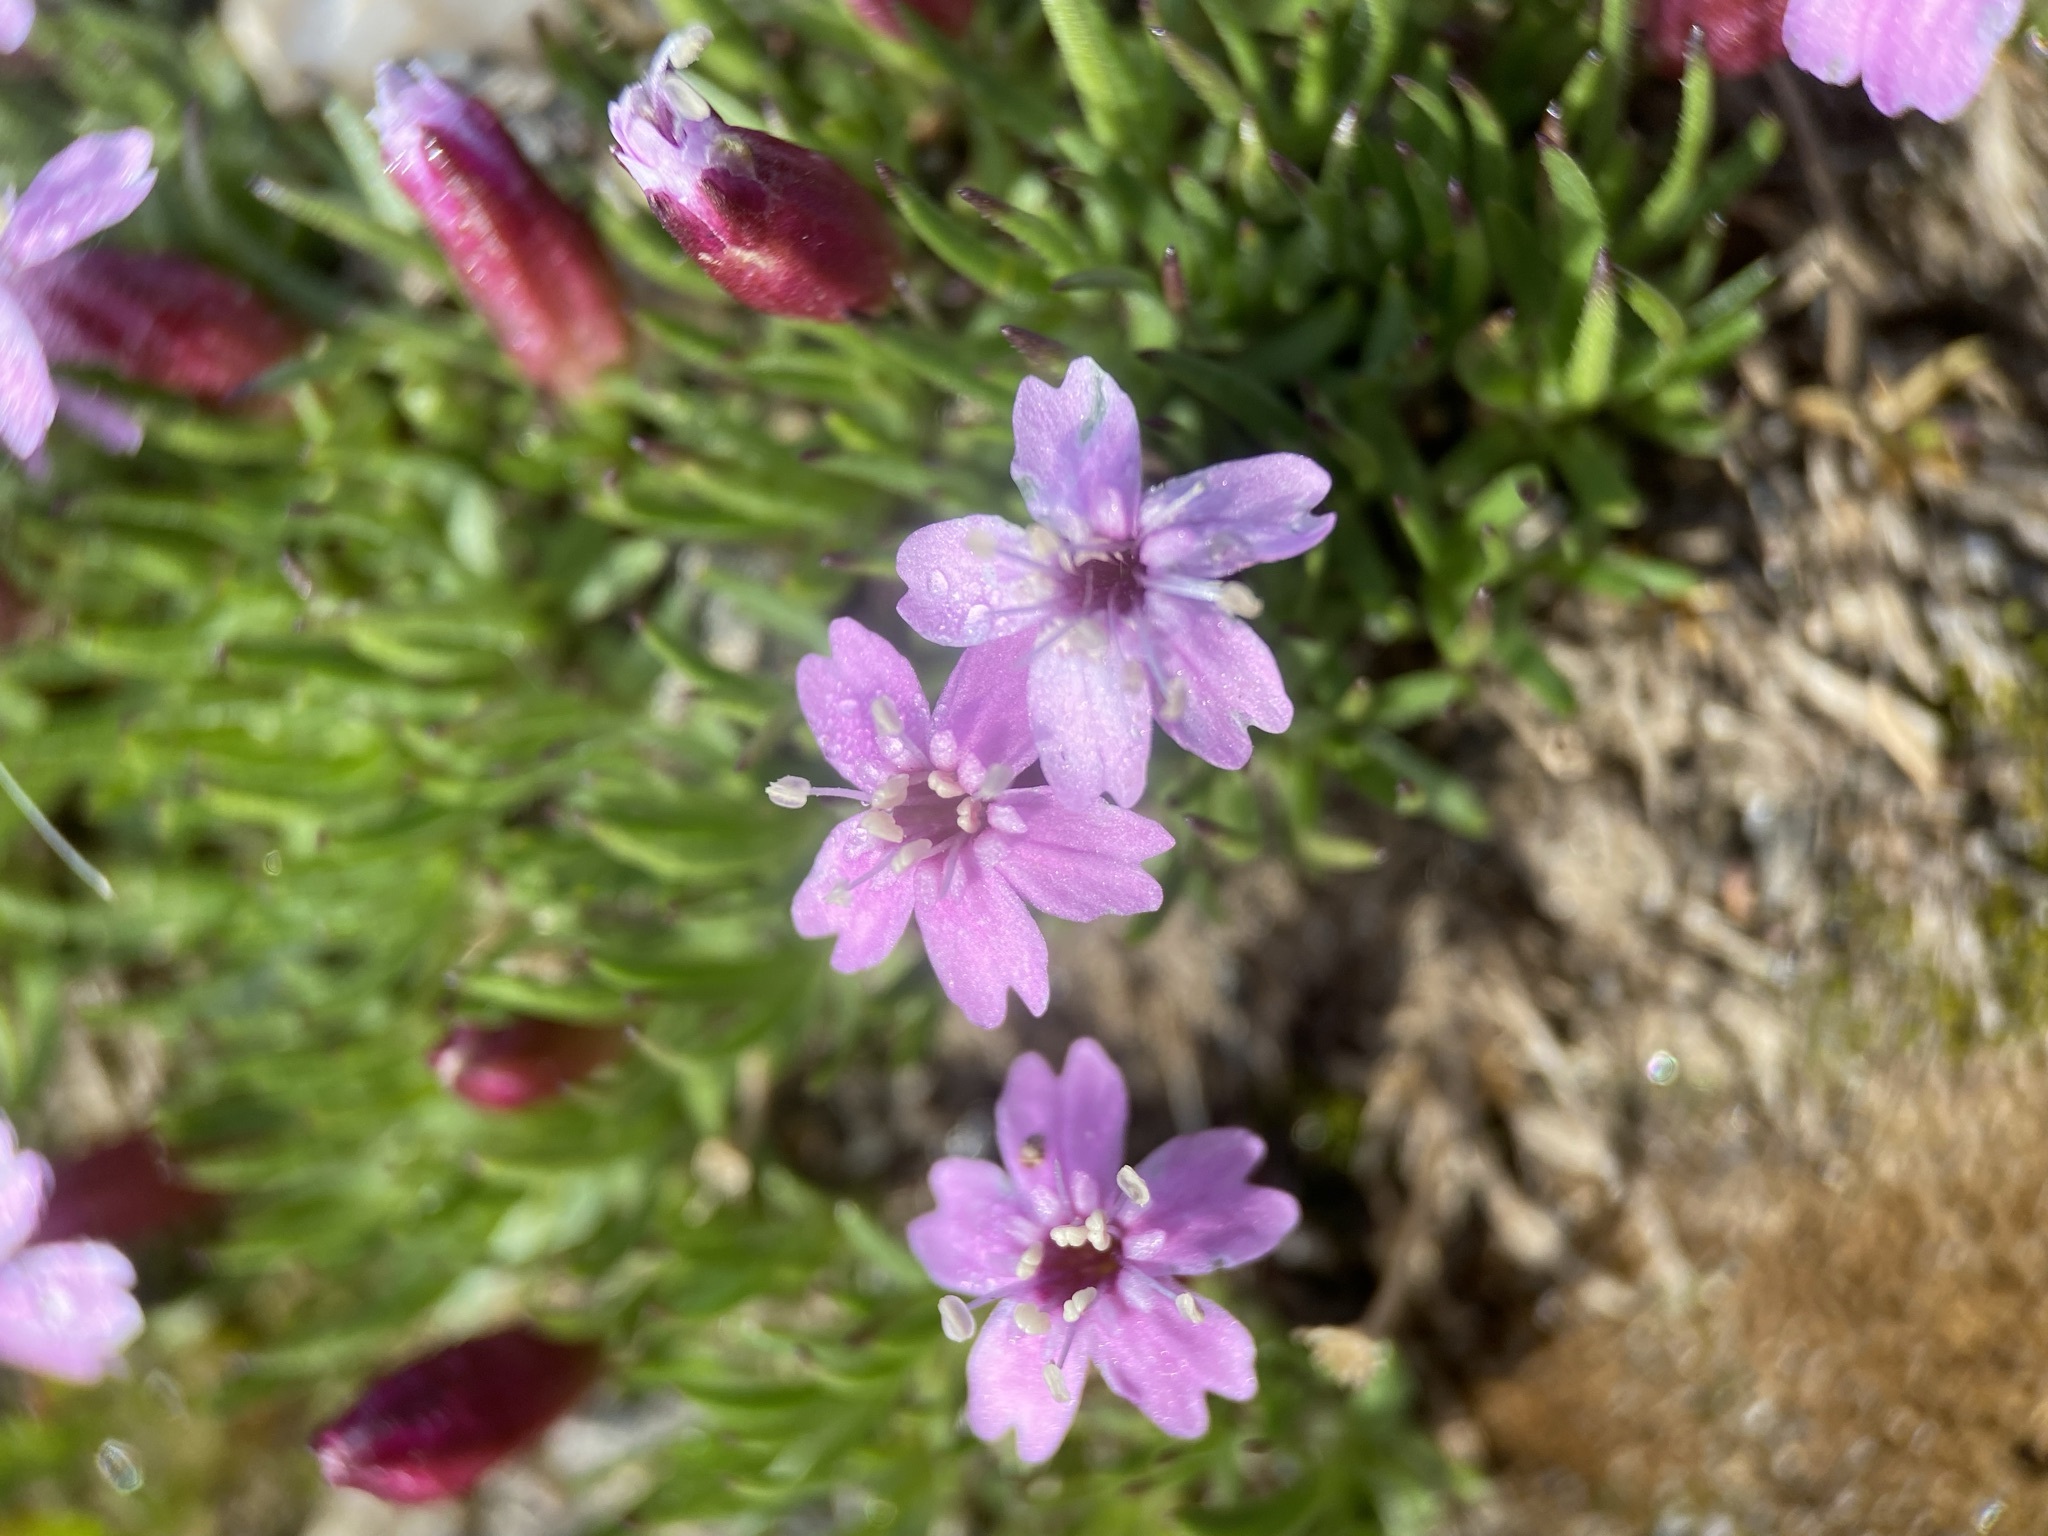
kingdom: Plantae
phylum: Tracheophyta
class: Magnoliopsida
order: Caryophyllales
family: Caryophyllaceae
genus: Silene
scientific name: Silene acaulis
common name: Moss campion
